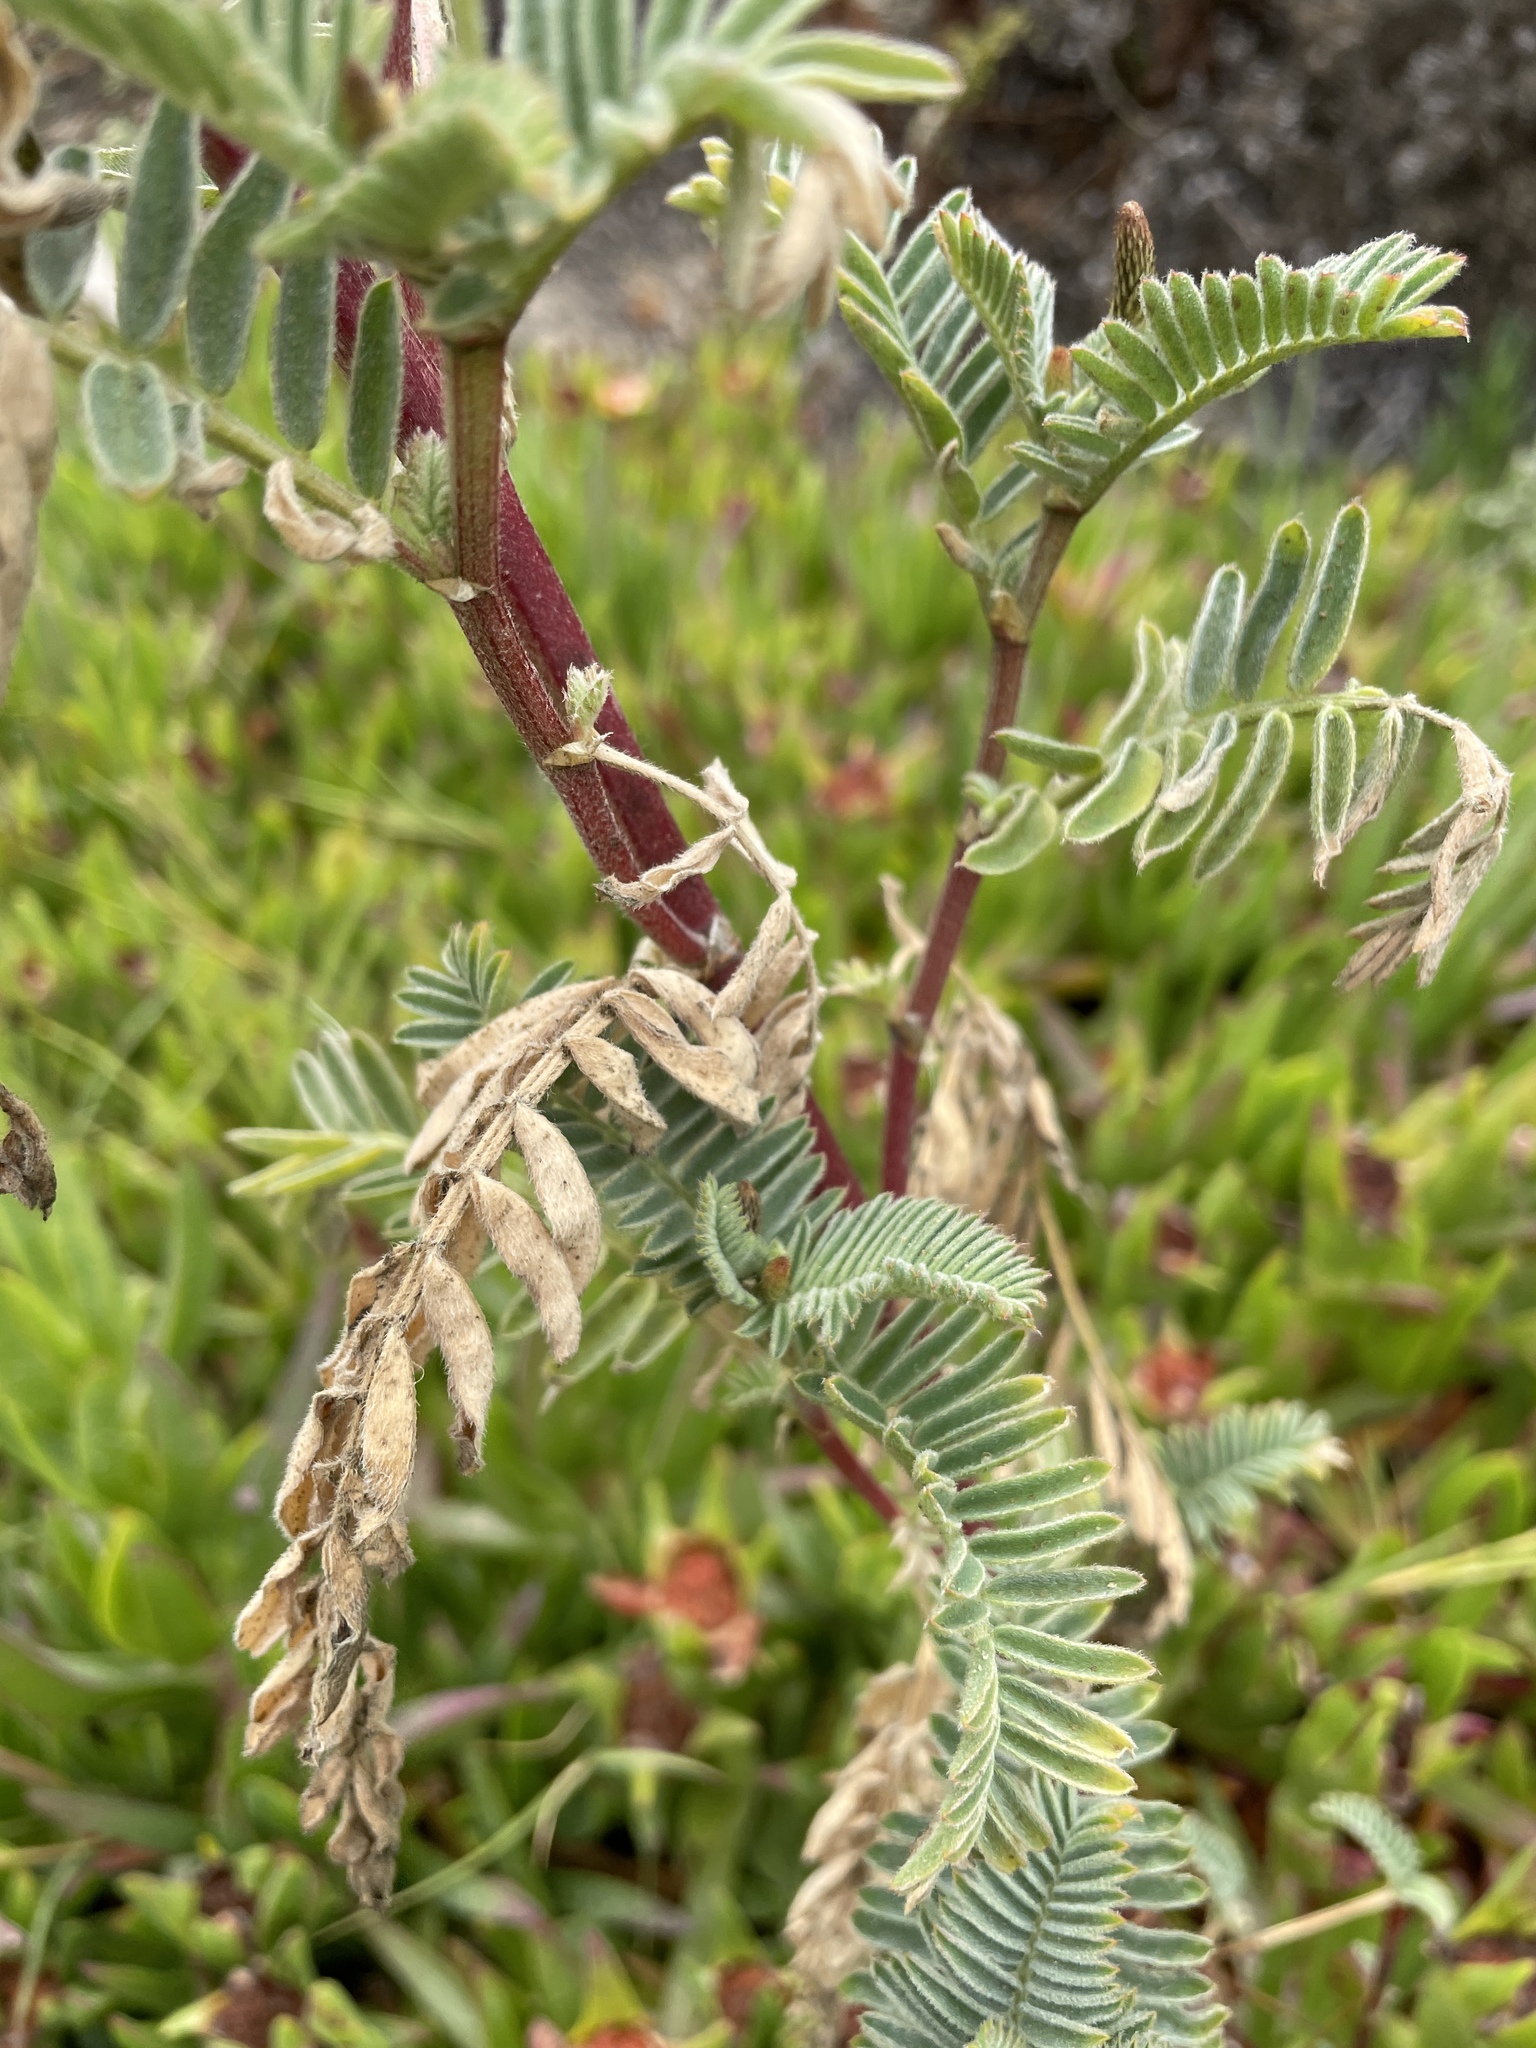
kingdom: Plantae
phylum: Tracheophyta
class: Magnoliopsida
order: Fabales
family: Fabaceae
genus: Astragalus
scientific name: Astragalus pycnostachyus
